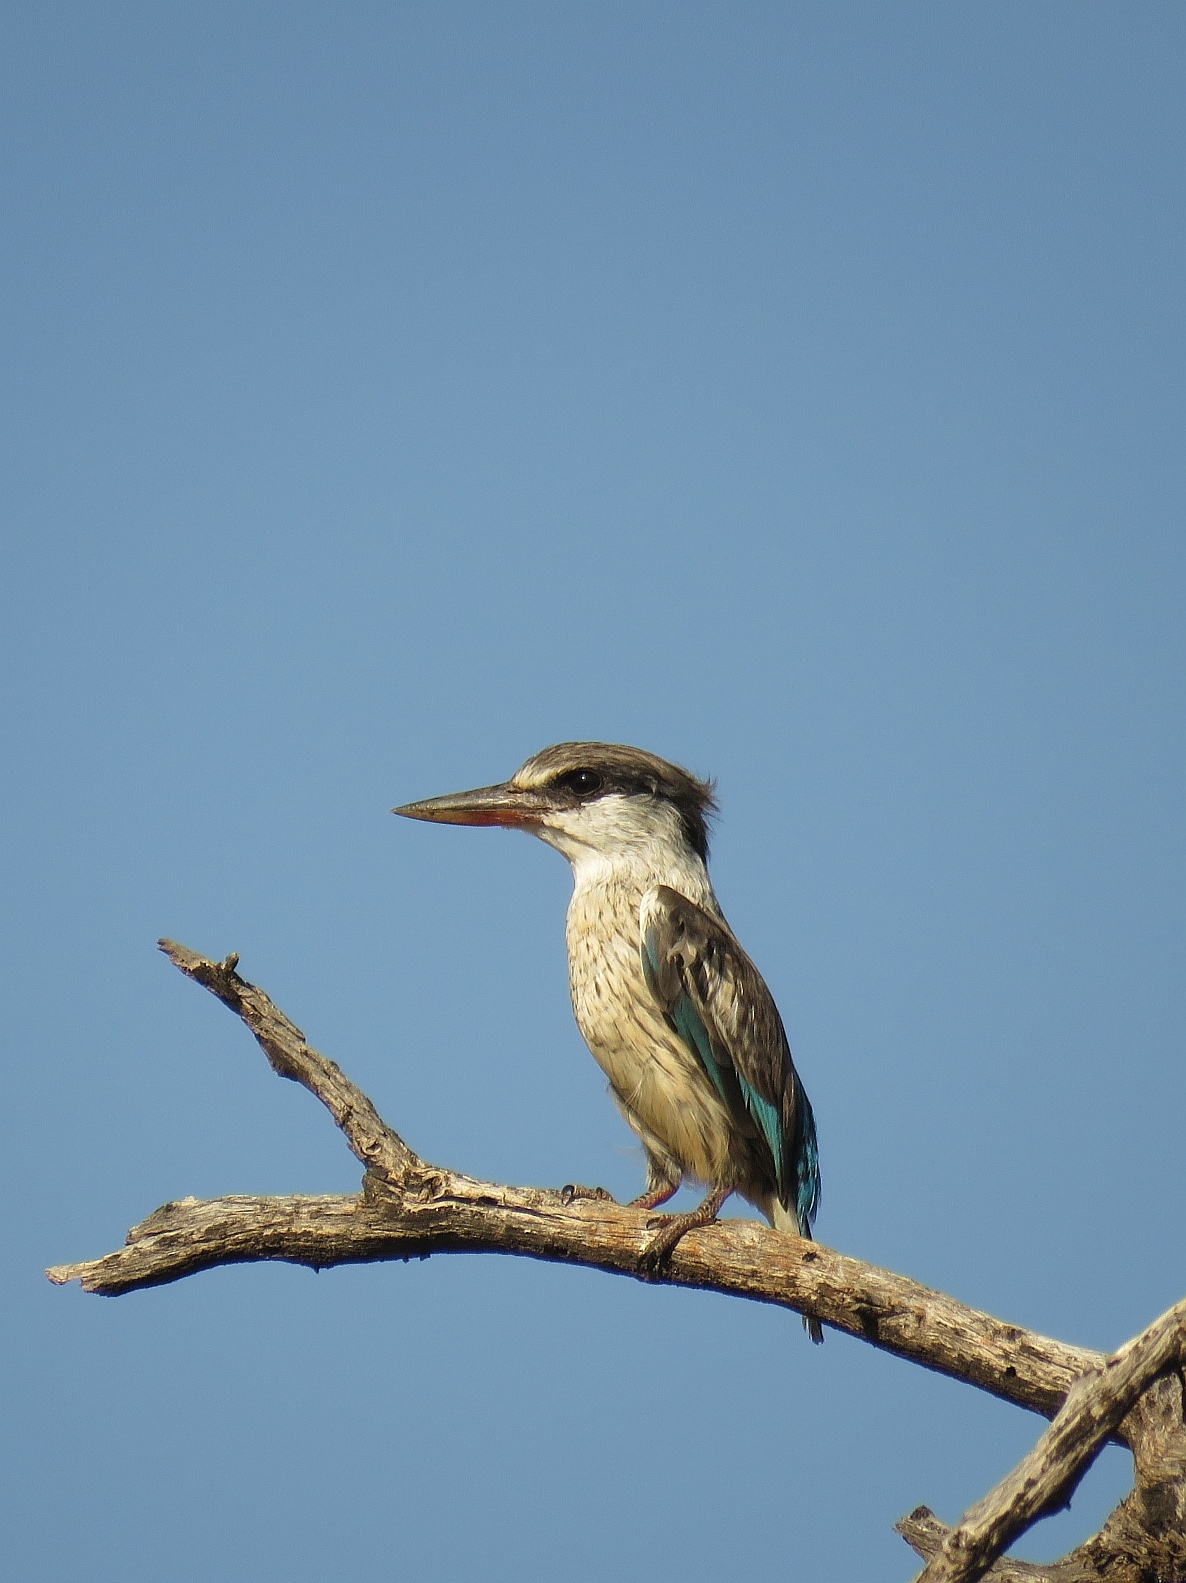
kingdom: Animalia
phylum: Chordata
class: Aves
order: Coraciiformes
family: Alcedinidae
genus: Halcyon
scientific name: Halcyon chelicuti
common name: Striped kingfisher
